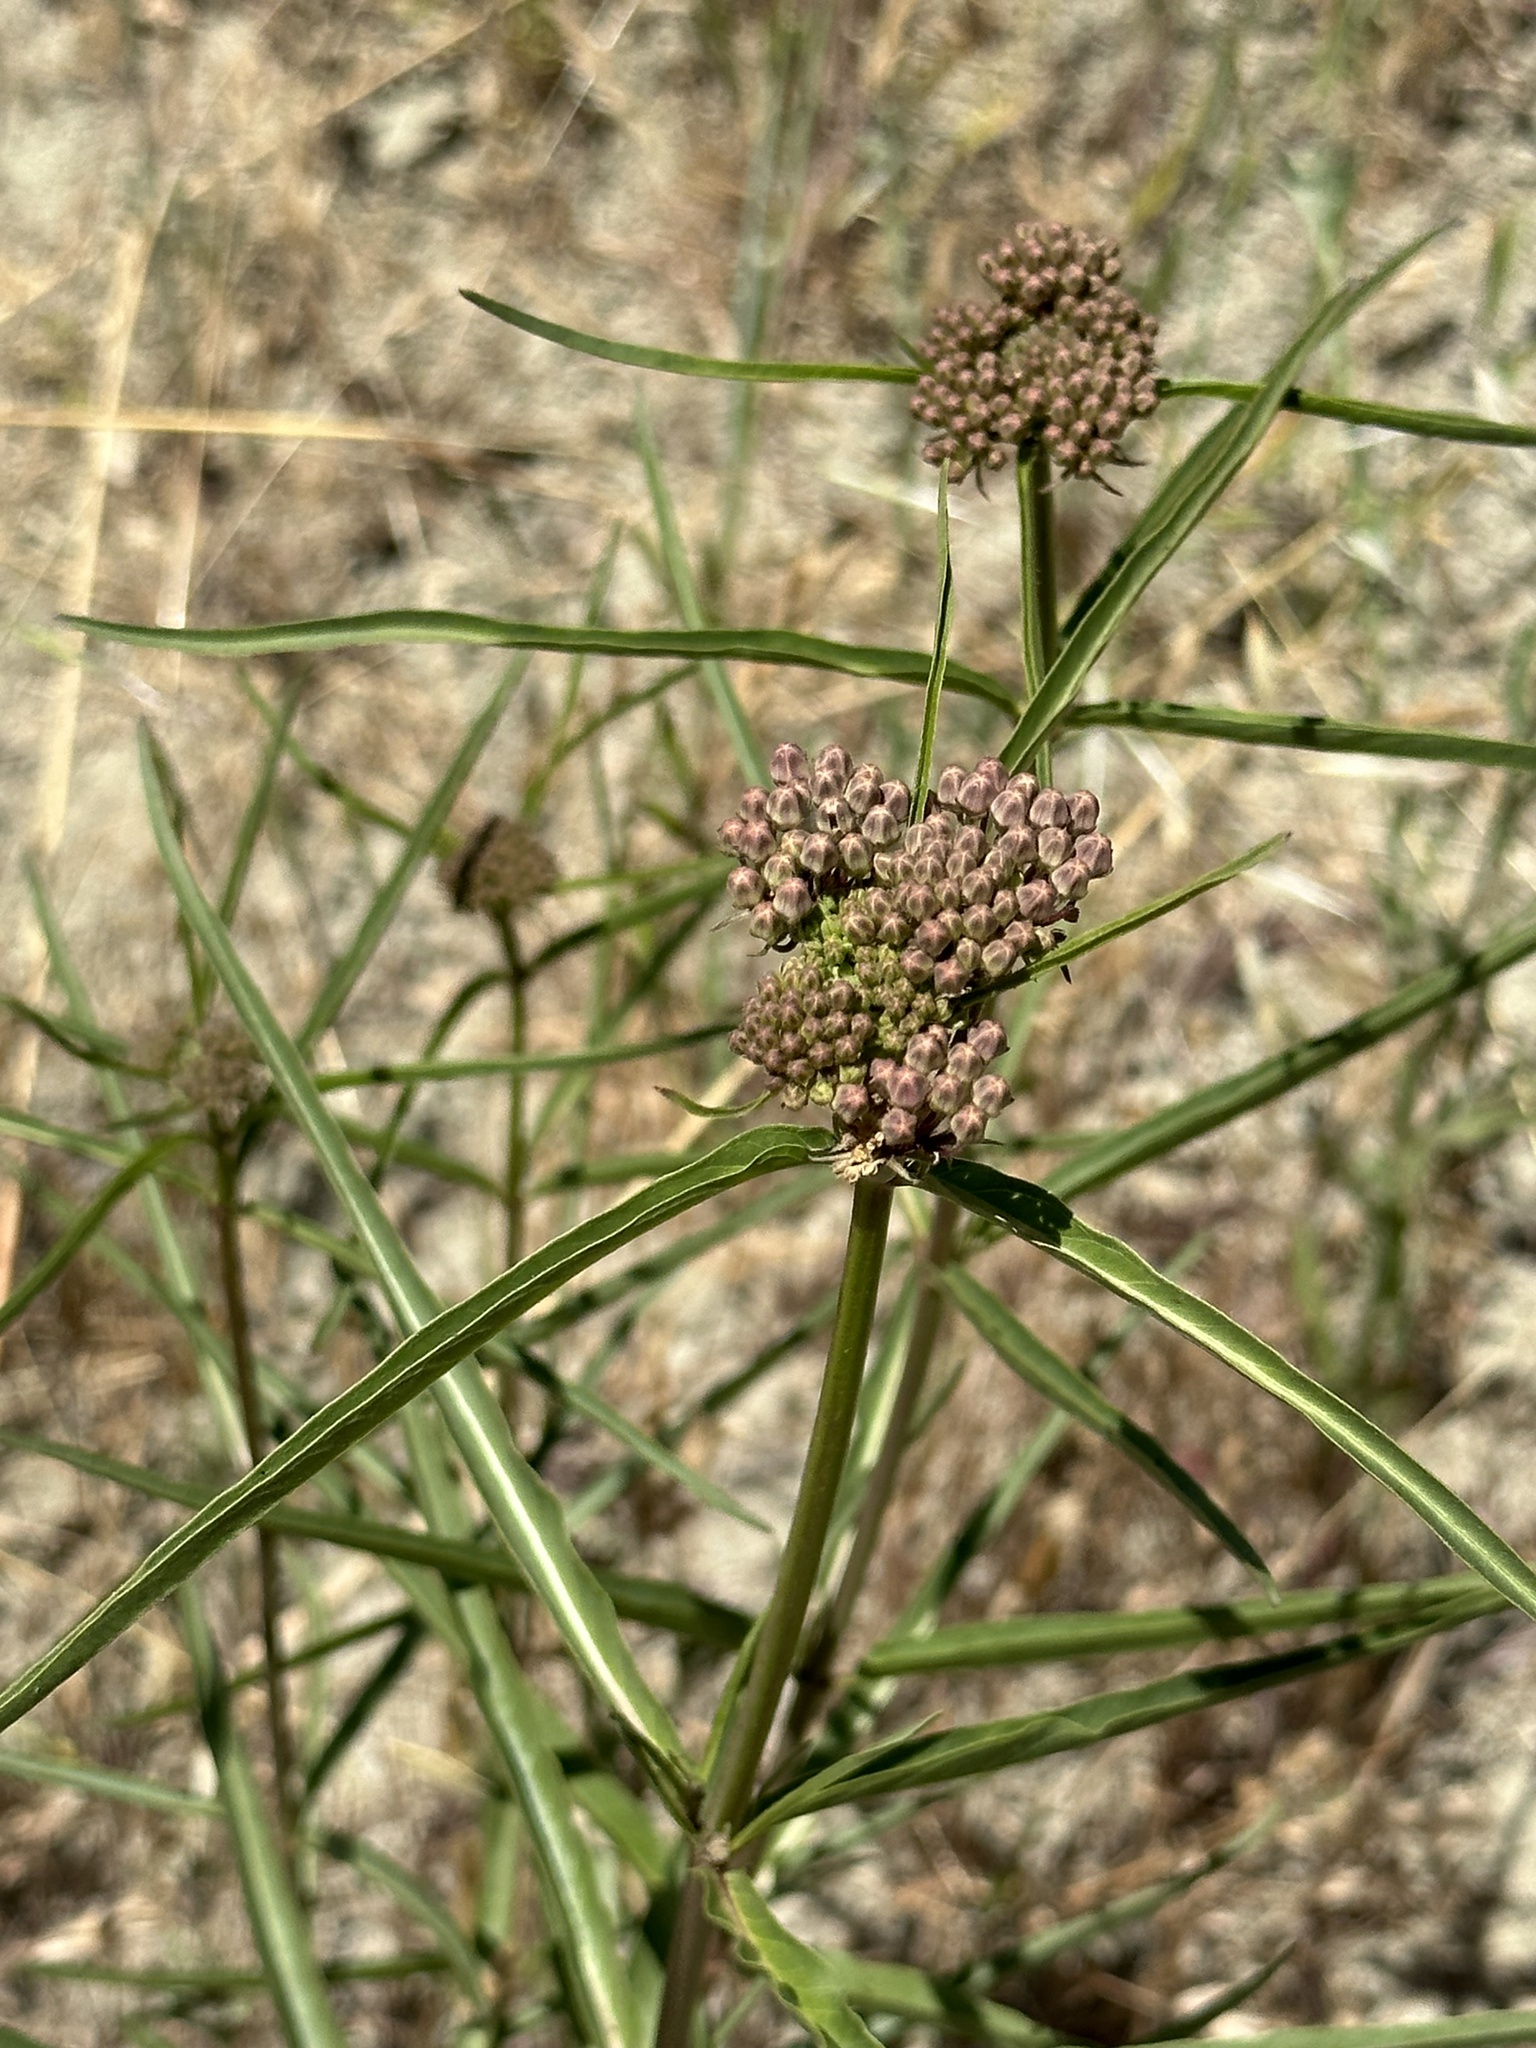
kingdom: Plantae
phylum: Tracheophyta
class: Magnoliopsida
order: Gentianales
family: Apocynaceae
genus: Asclepias
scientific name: Asclepias fascicularis
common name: Mexican milkweed
